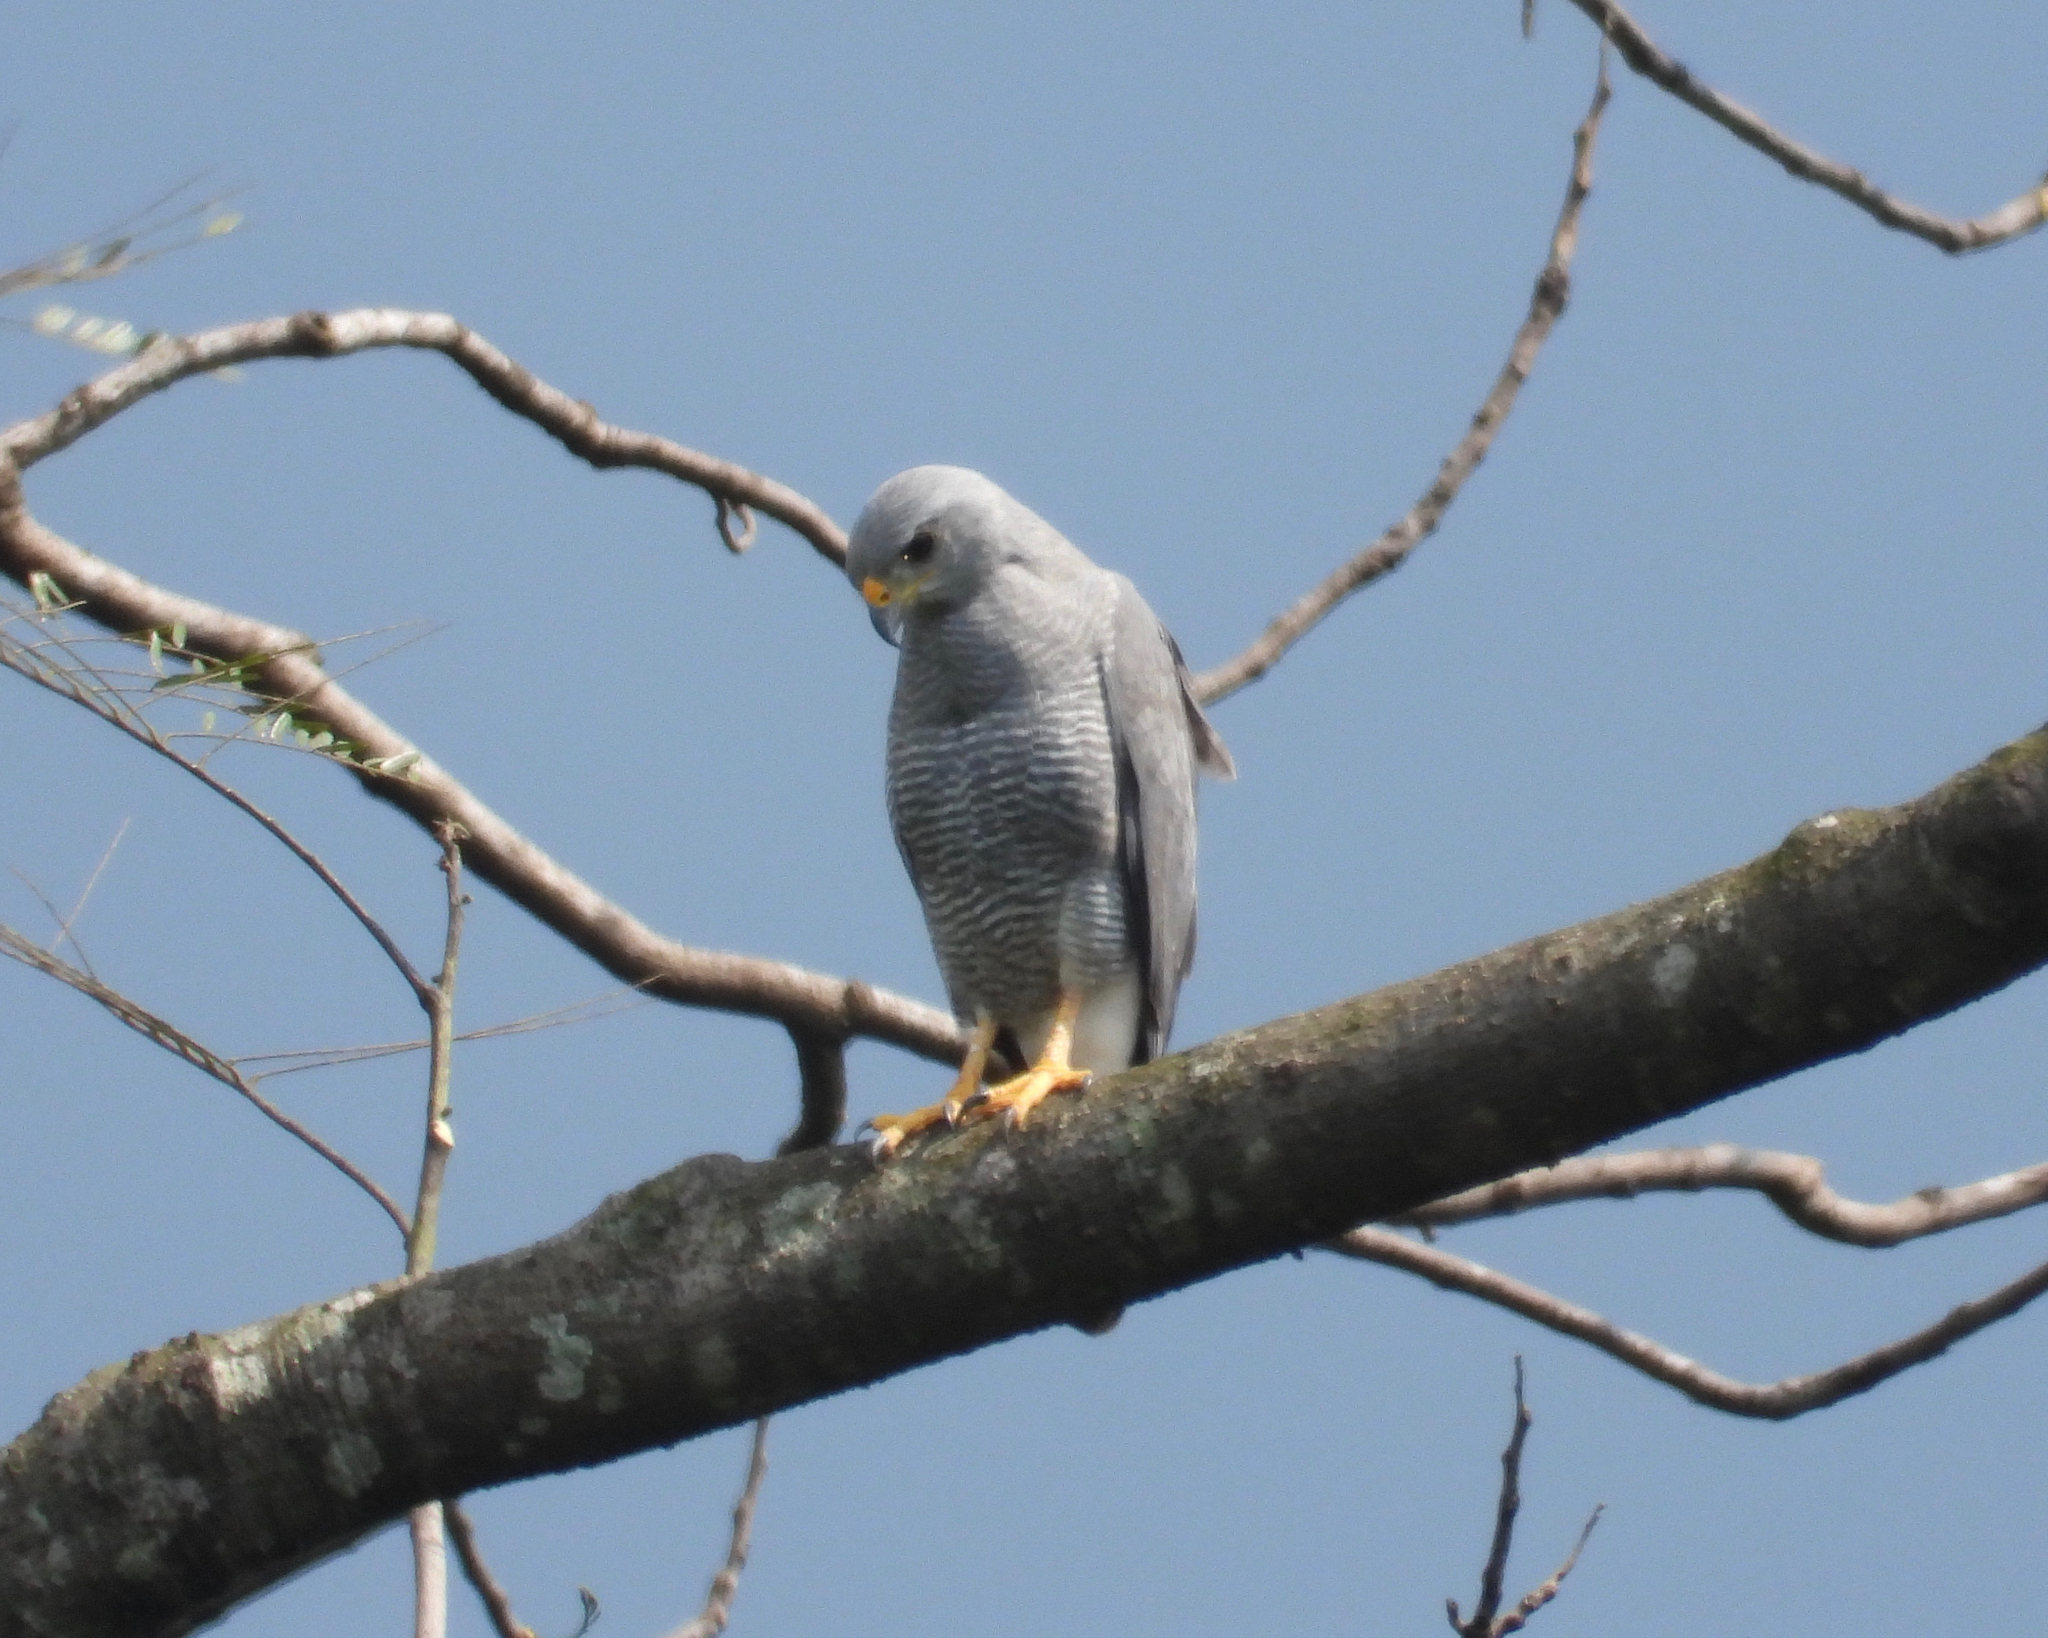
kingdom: Animalia
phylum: Chordata
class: Aves
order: Accipitriformes
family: Accipitridae
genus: Buteo
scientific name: Buteo nitidus
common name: Grey-lined hawk
